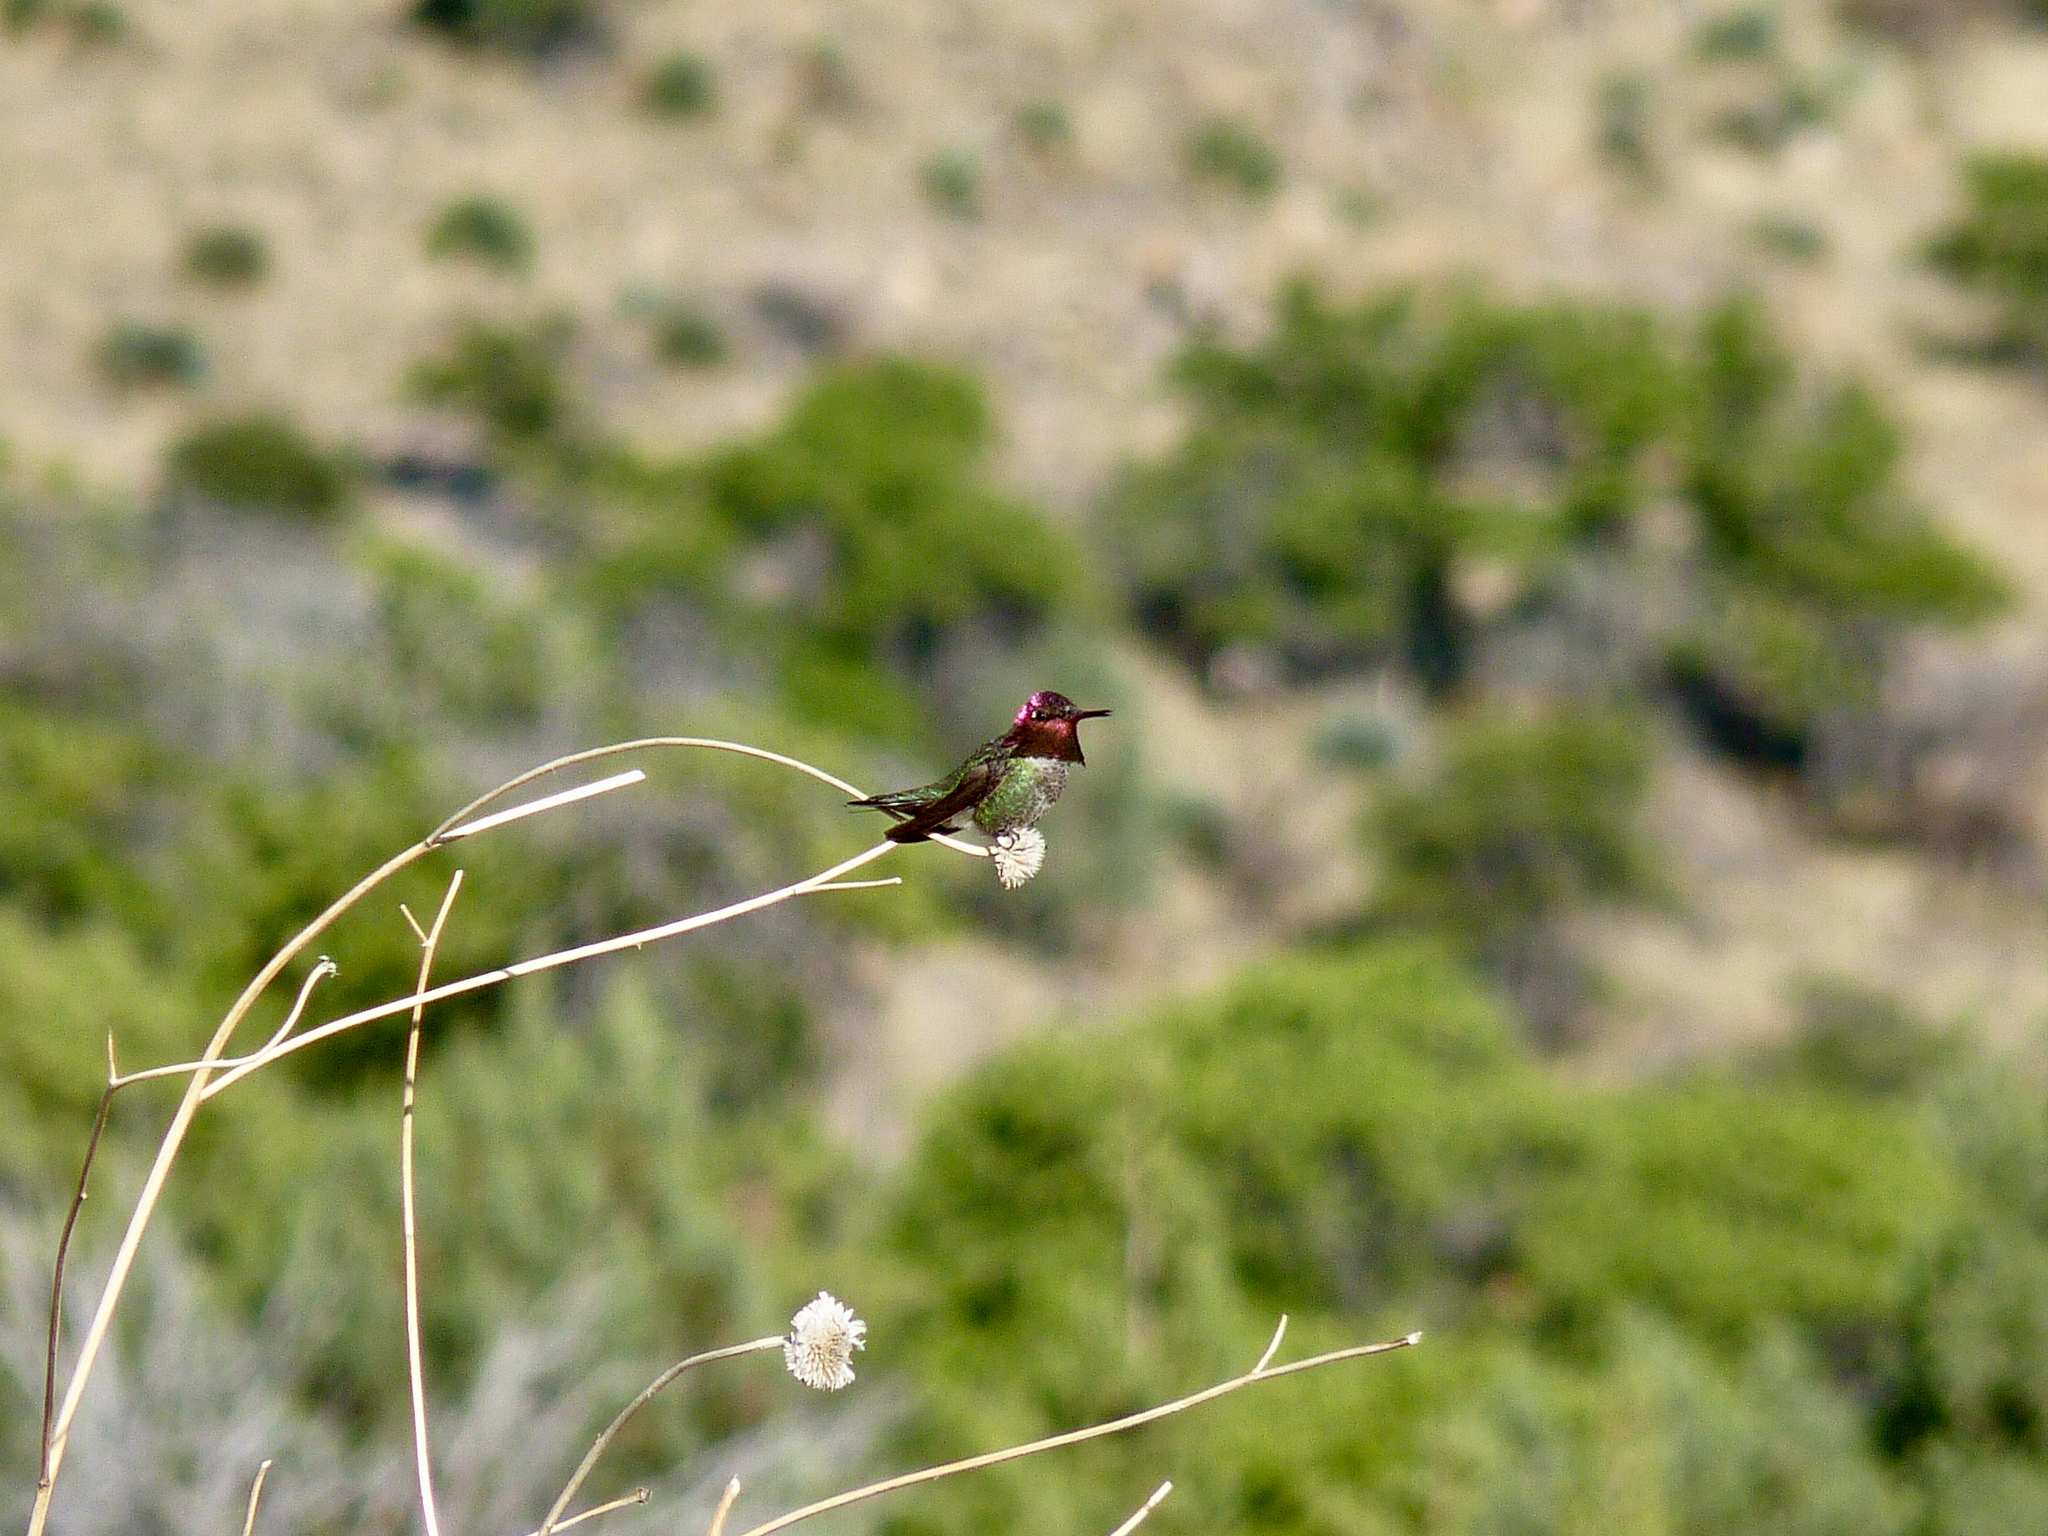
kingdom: Animalia
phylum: Chordata
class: Aves
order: Apodiformes
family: Trochilidae
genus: Calypte
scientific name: Calypte anna
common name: Anna's hummingbird
